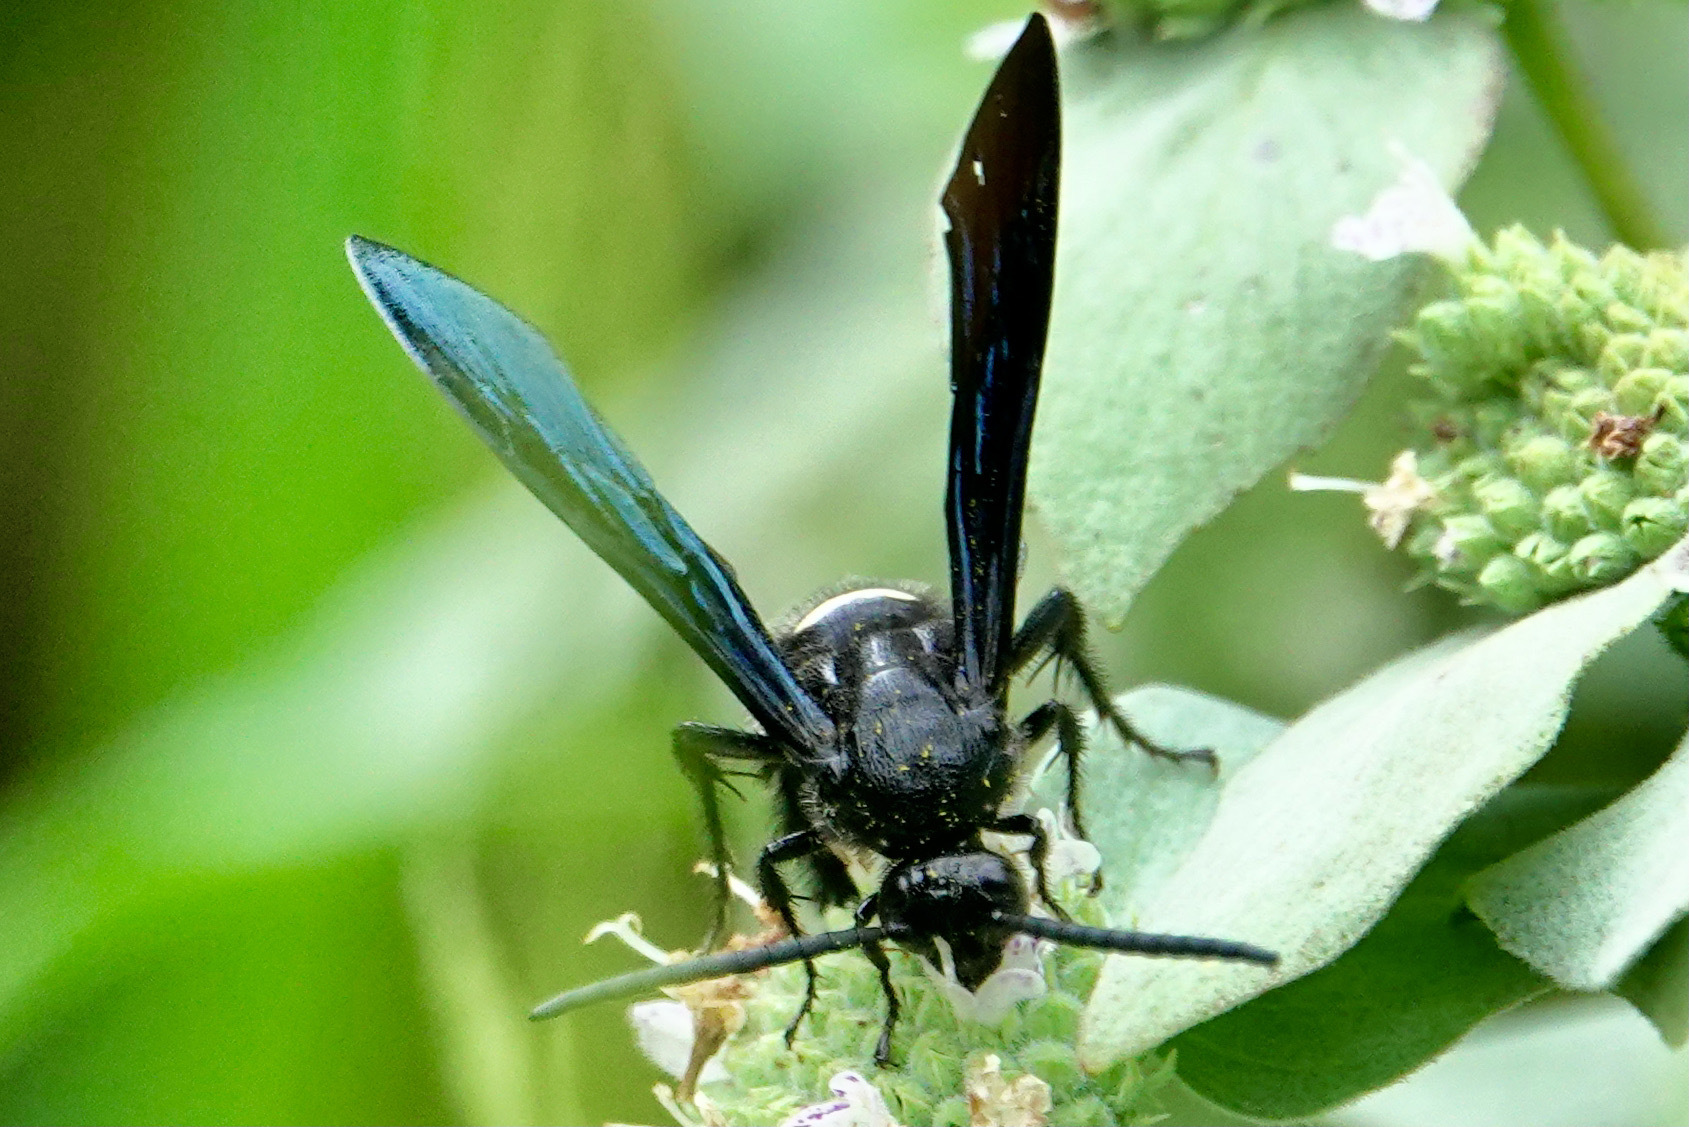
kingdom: Animalia
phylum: Arthropoda
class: Insecta
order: Hymenoptera
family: Scoliidae
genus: Scolia
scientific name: Scolia bicincta
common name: Double-banded scoliid wasp
